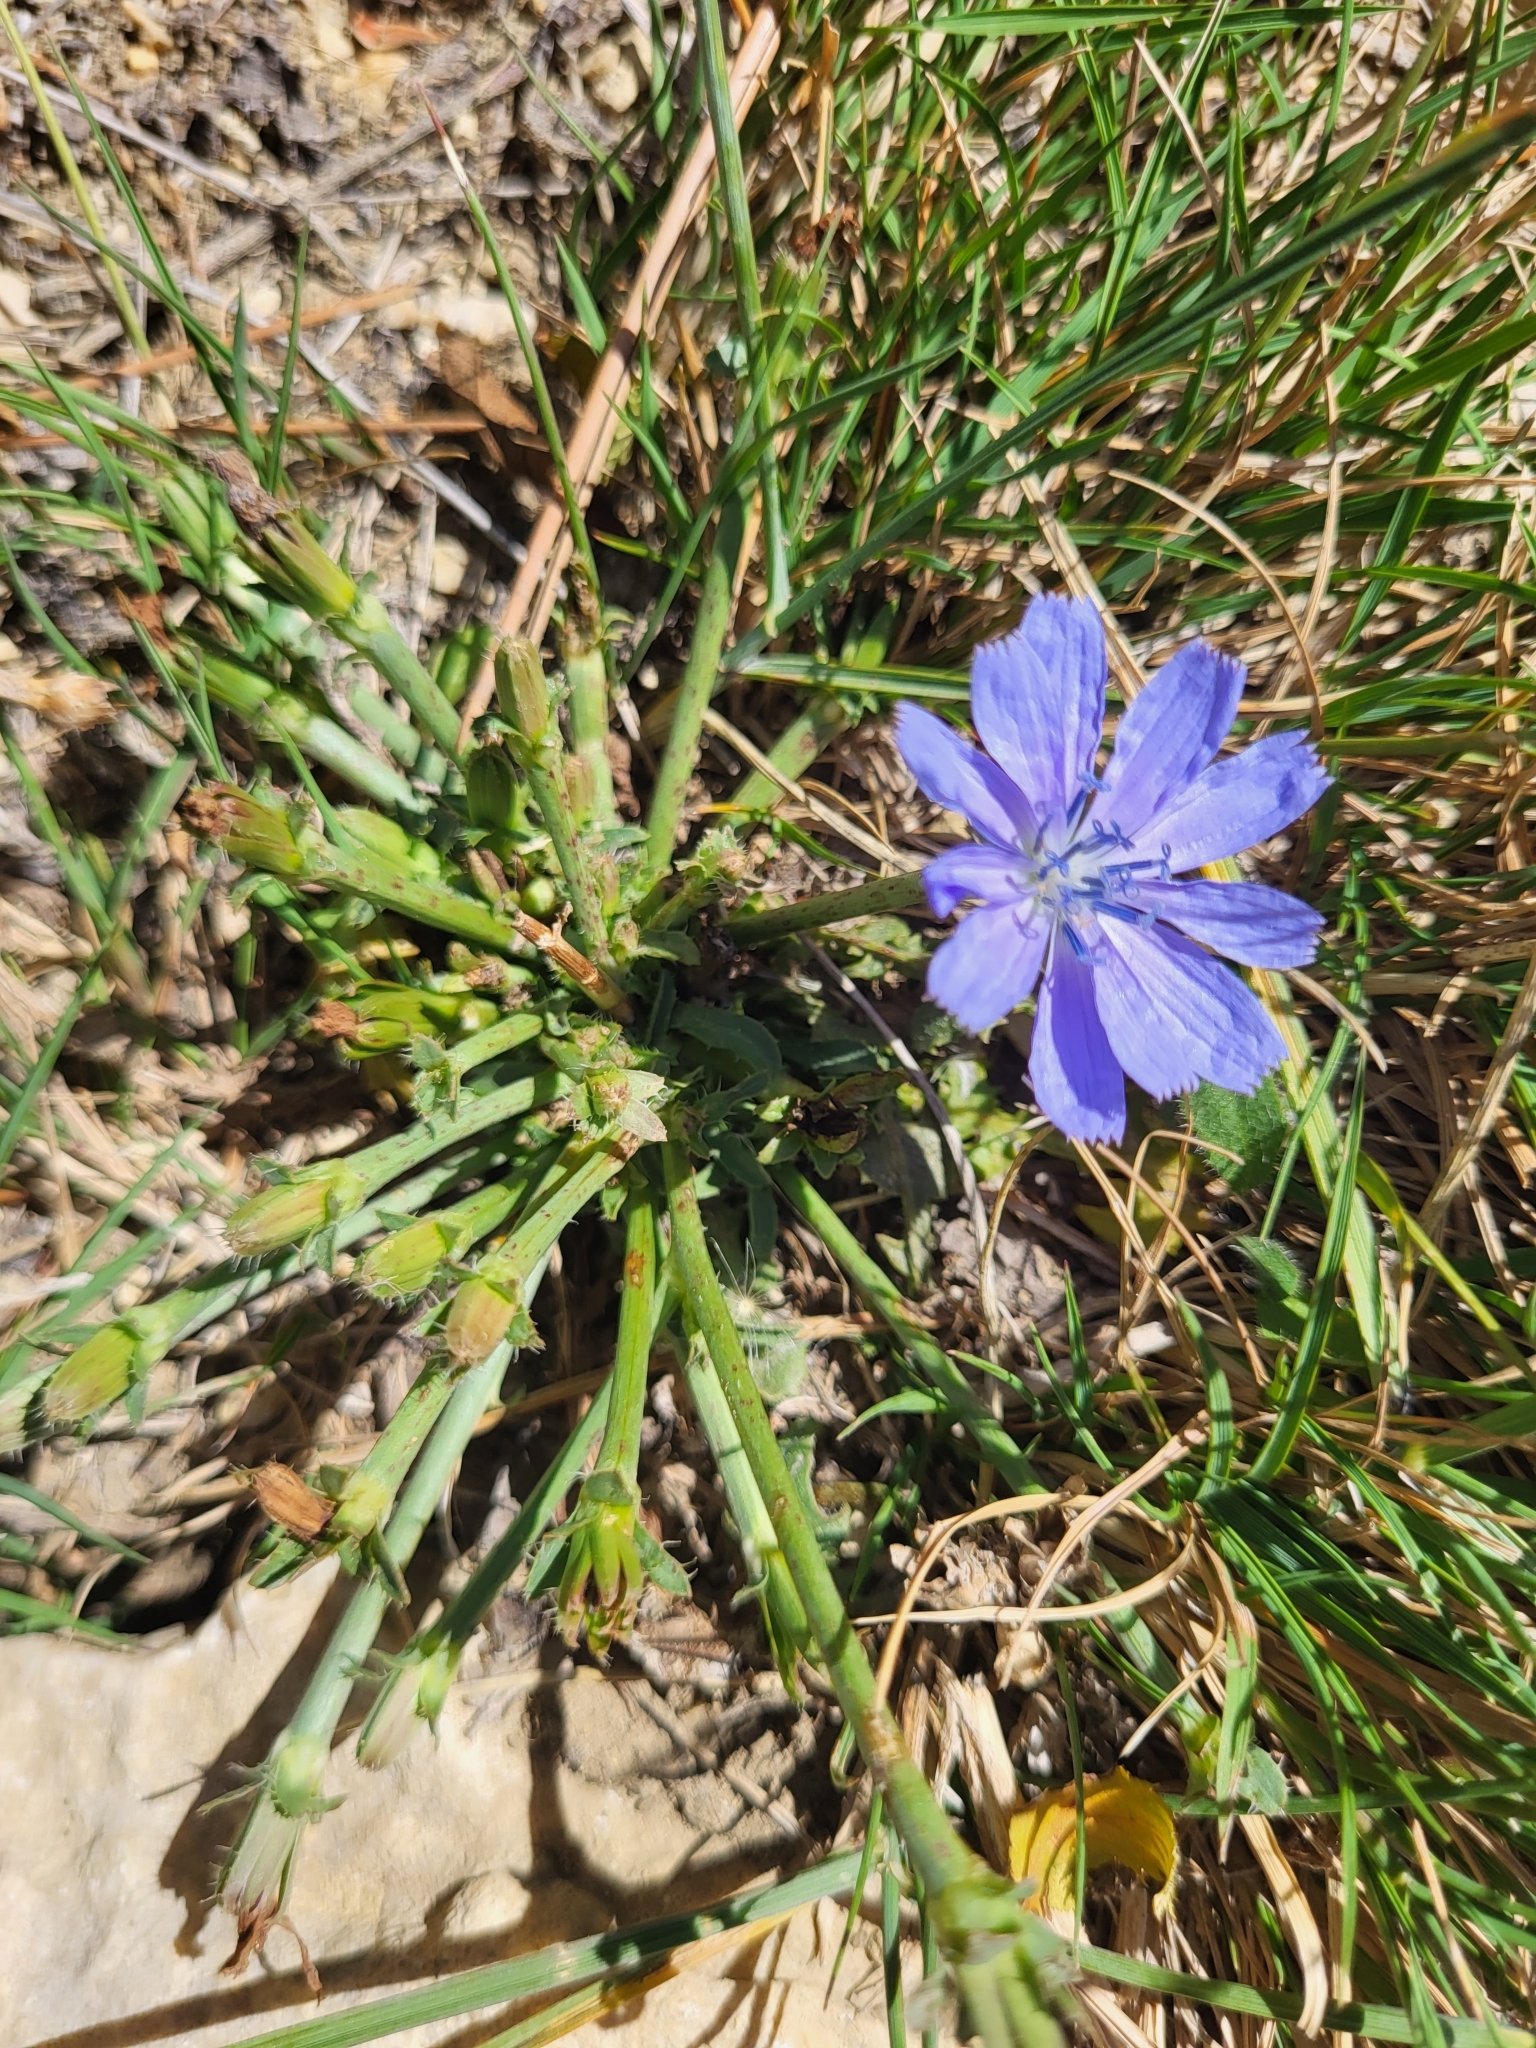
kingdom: Plantae
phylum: Tracheophyta
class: Magnoliopsida
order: Asterales
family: Asteraceae
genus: Cichorium
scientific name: Cichorium intybus
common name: Chicory
